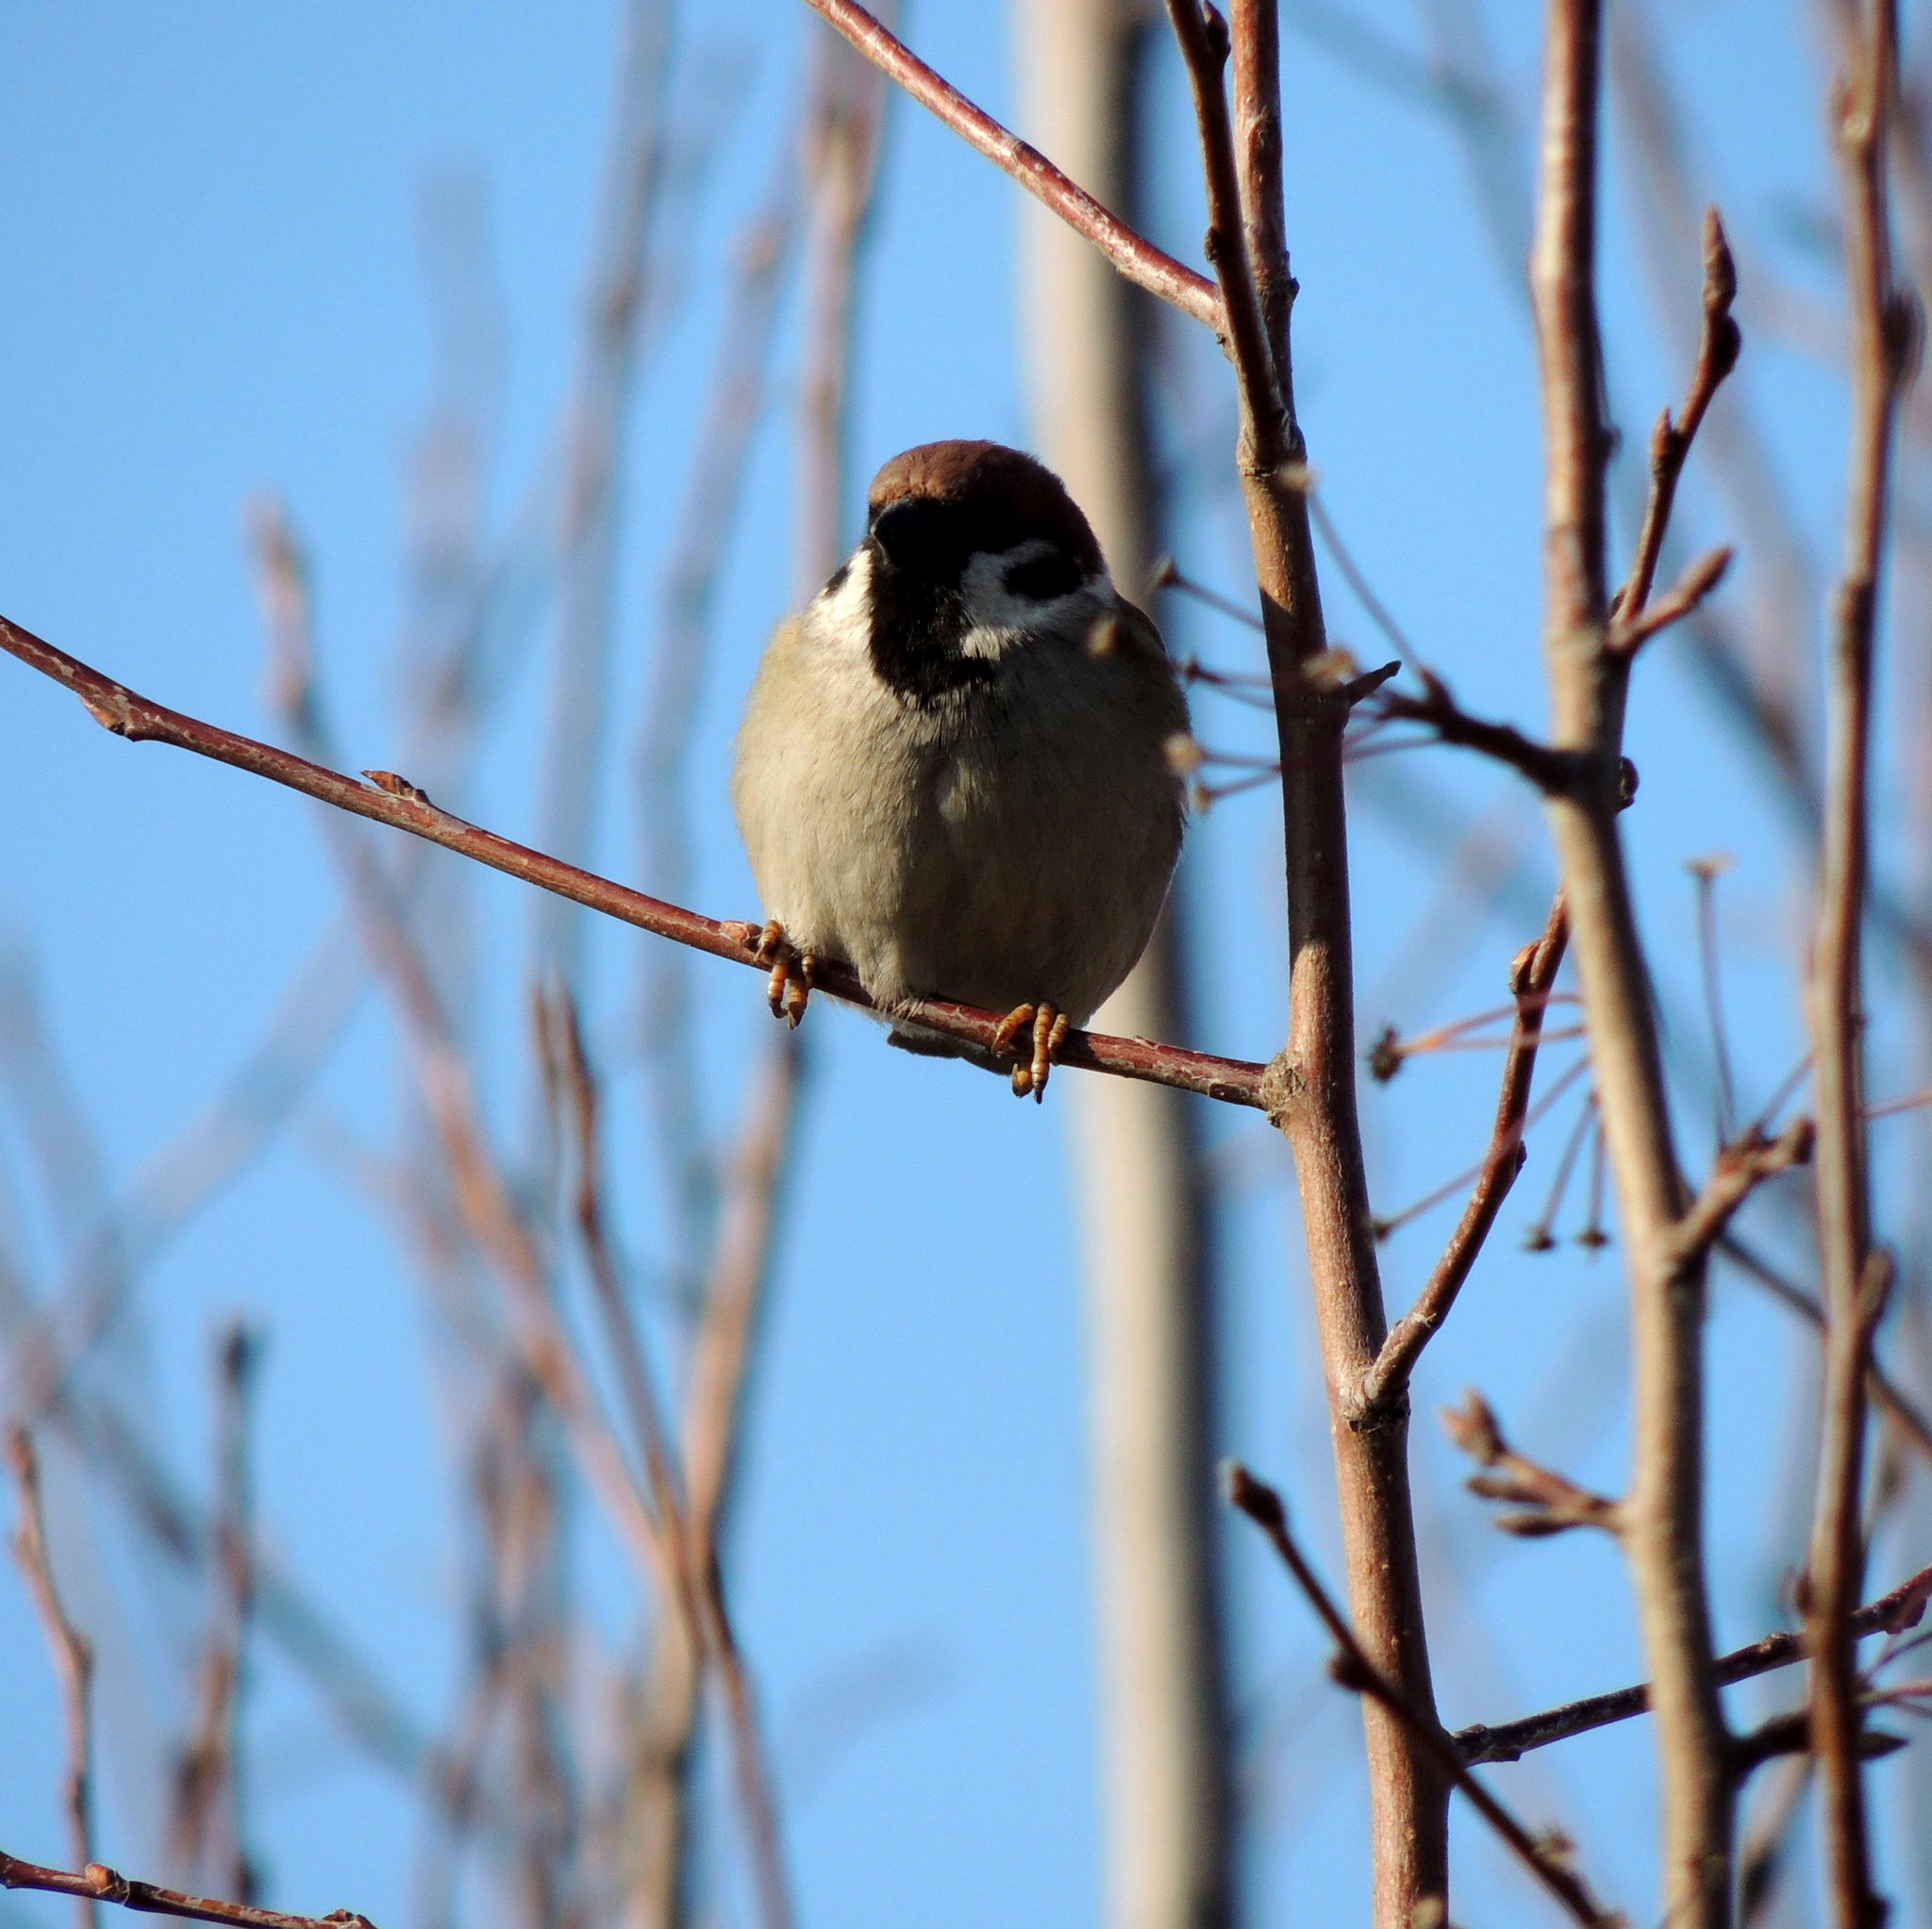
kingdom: Animalia
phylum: Chordata
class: Aves
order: Passeriformes
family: Passeridae
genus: Passer
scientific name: Passer montanus
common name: Eurasian tree sparrow
